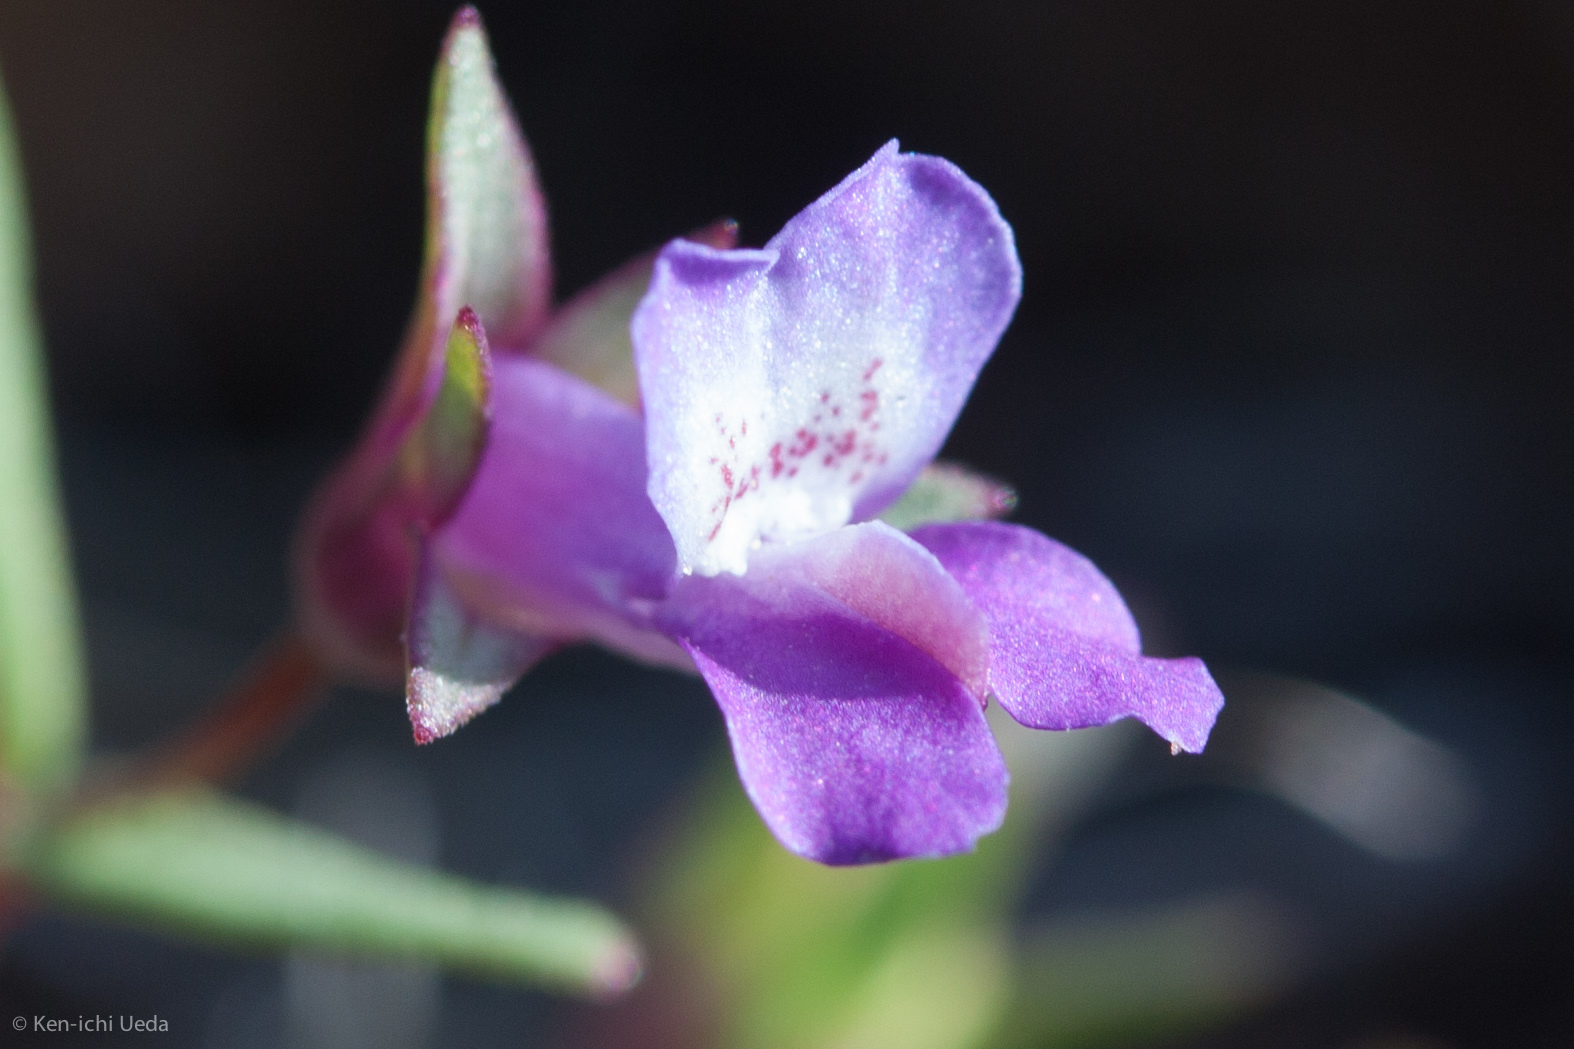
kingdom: Plantae
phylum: Tracheophyta
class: Magnoliopsida
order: Lamiales
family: Plantaginaceae
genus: Collinsia
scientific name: Collinsia sparsiflora
